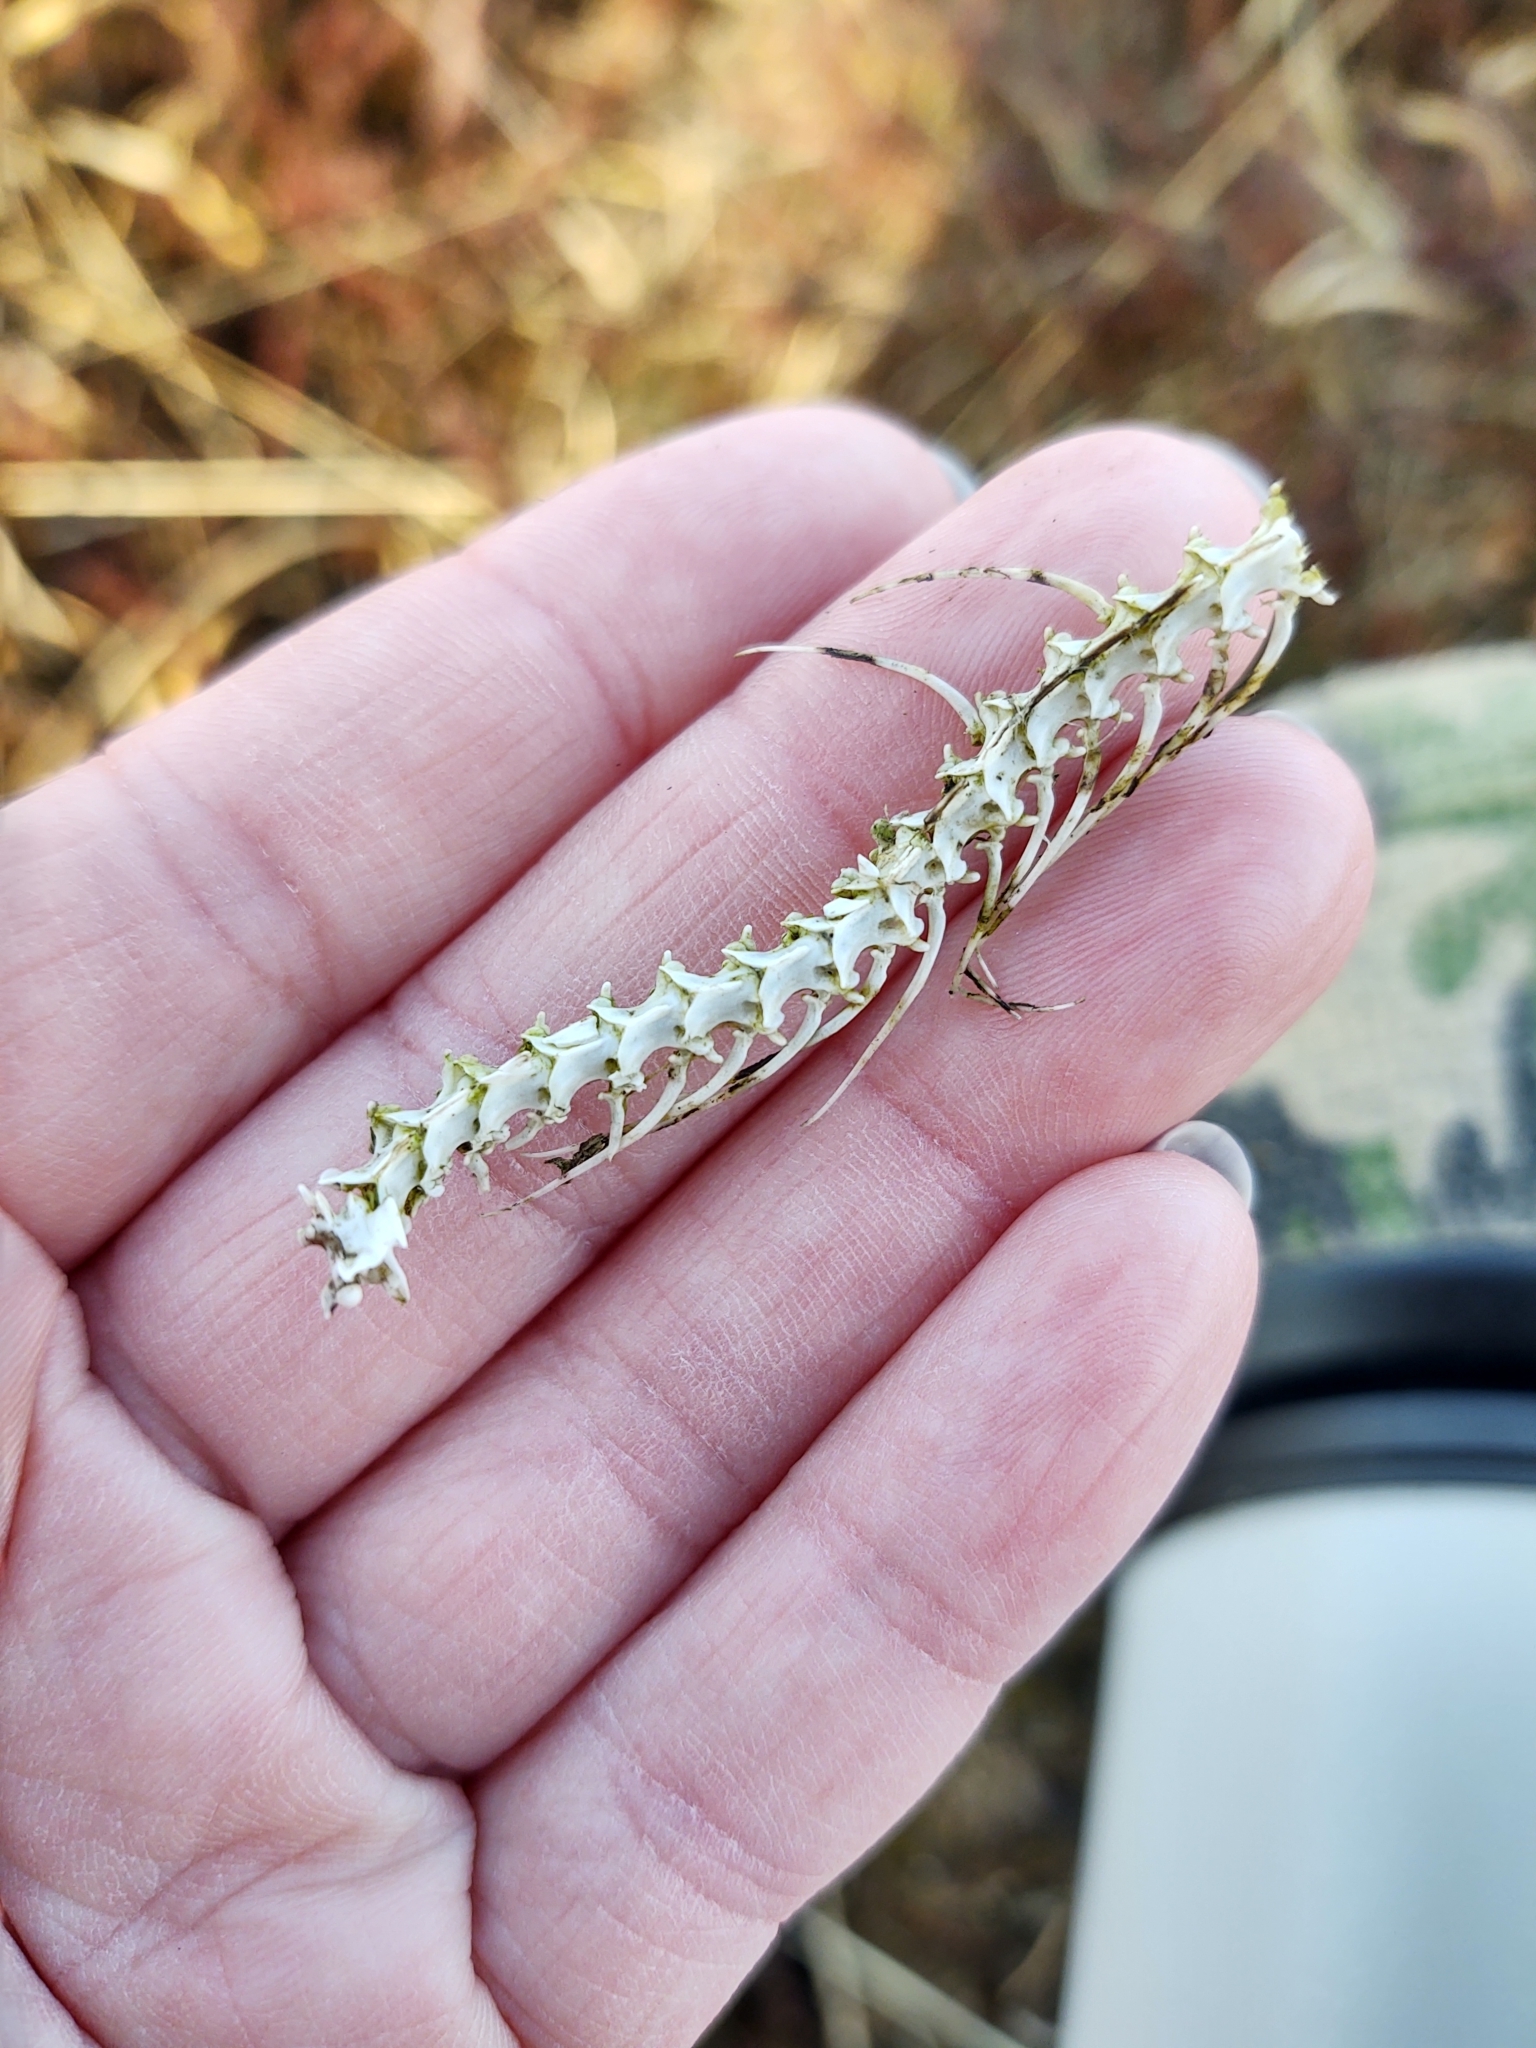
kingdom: Animalia
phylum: Chordata
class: Squamata
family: Viperidae
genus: Vipera
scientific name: Vipera berus
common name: Adder
